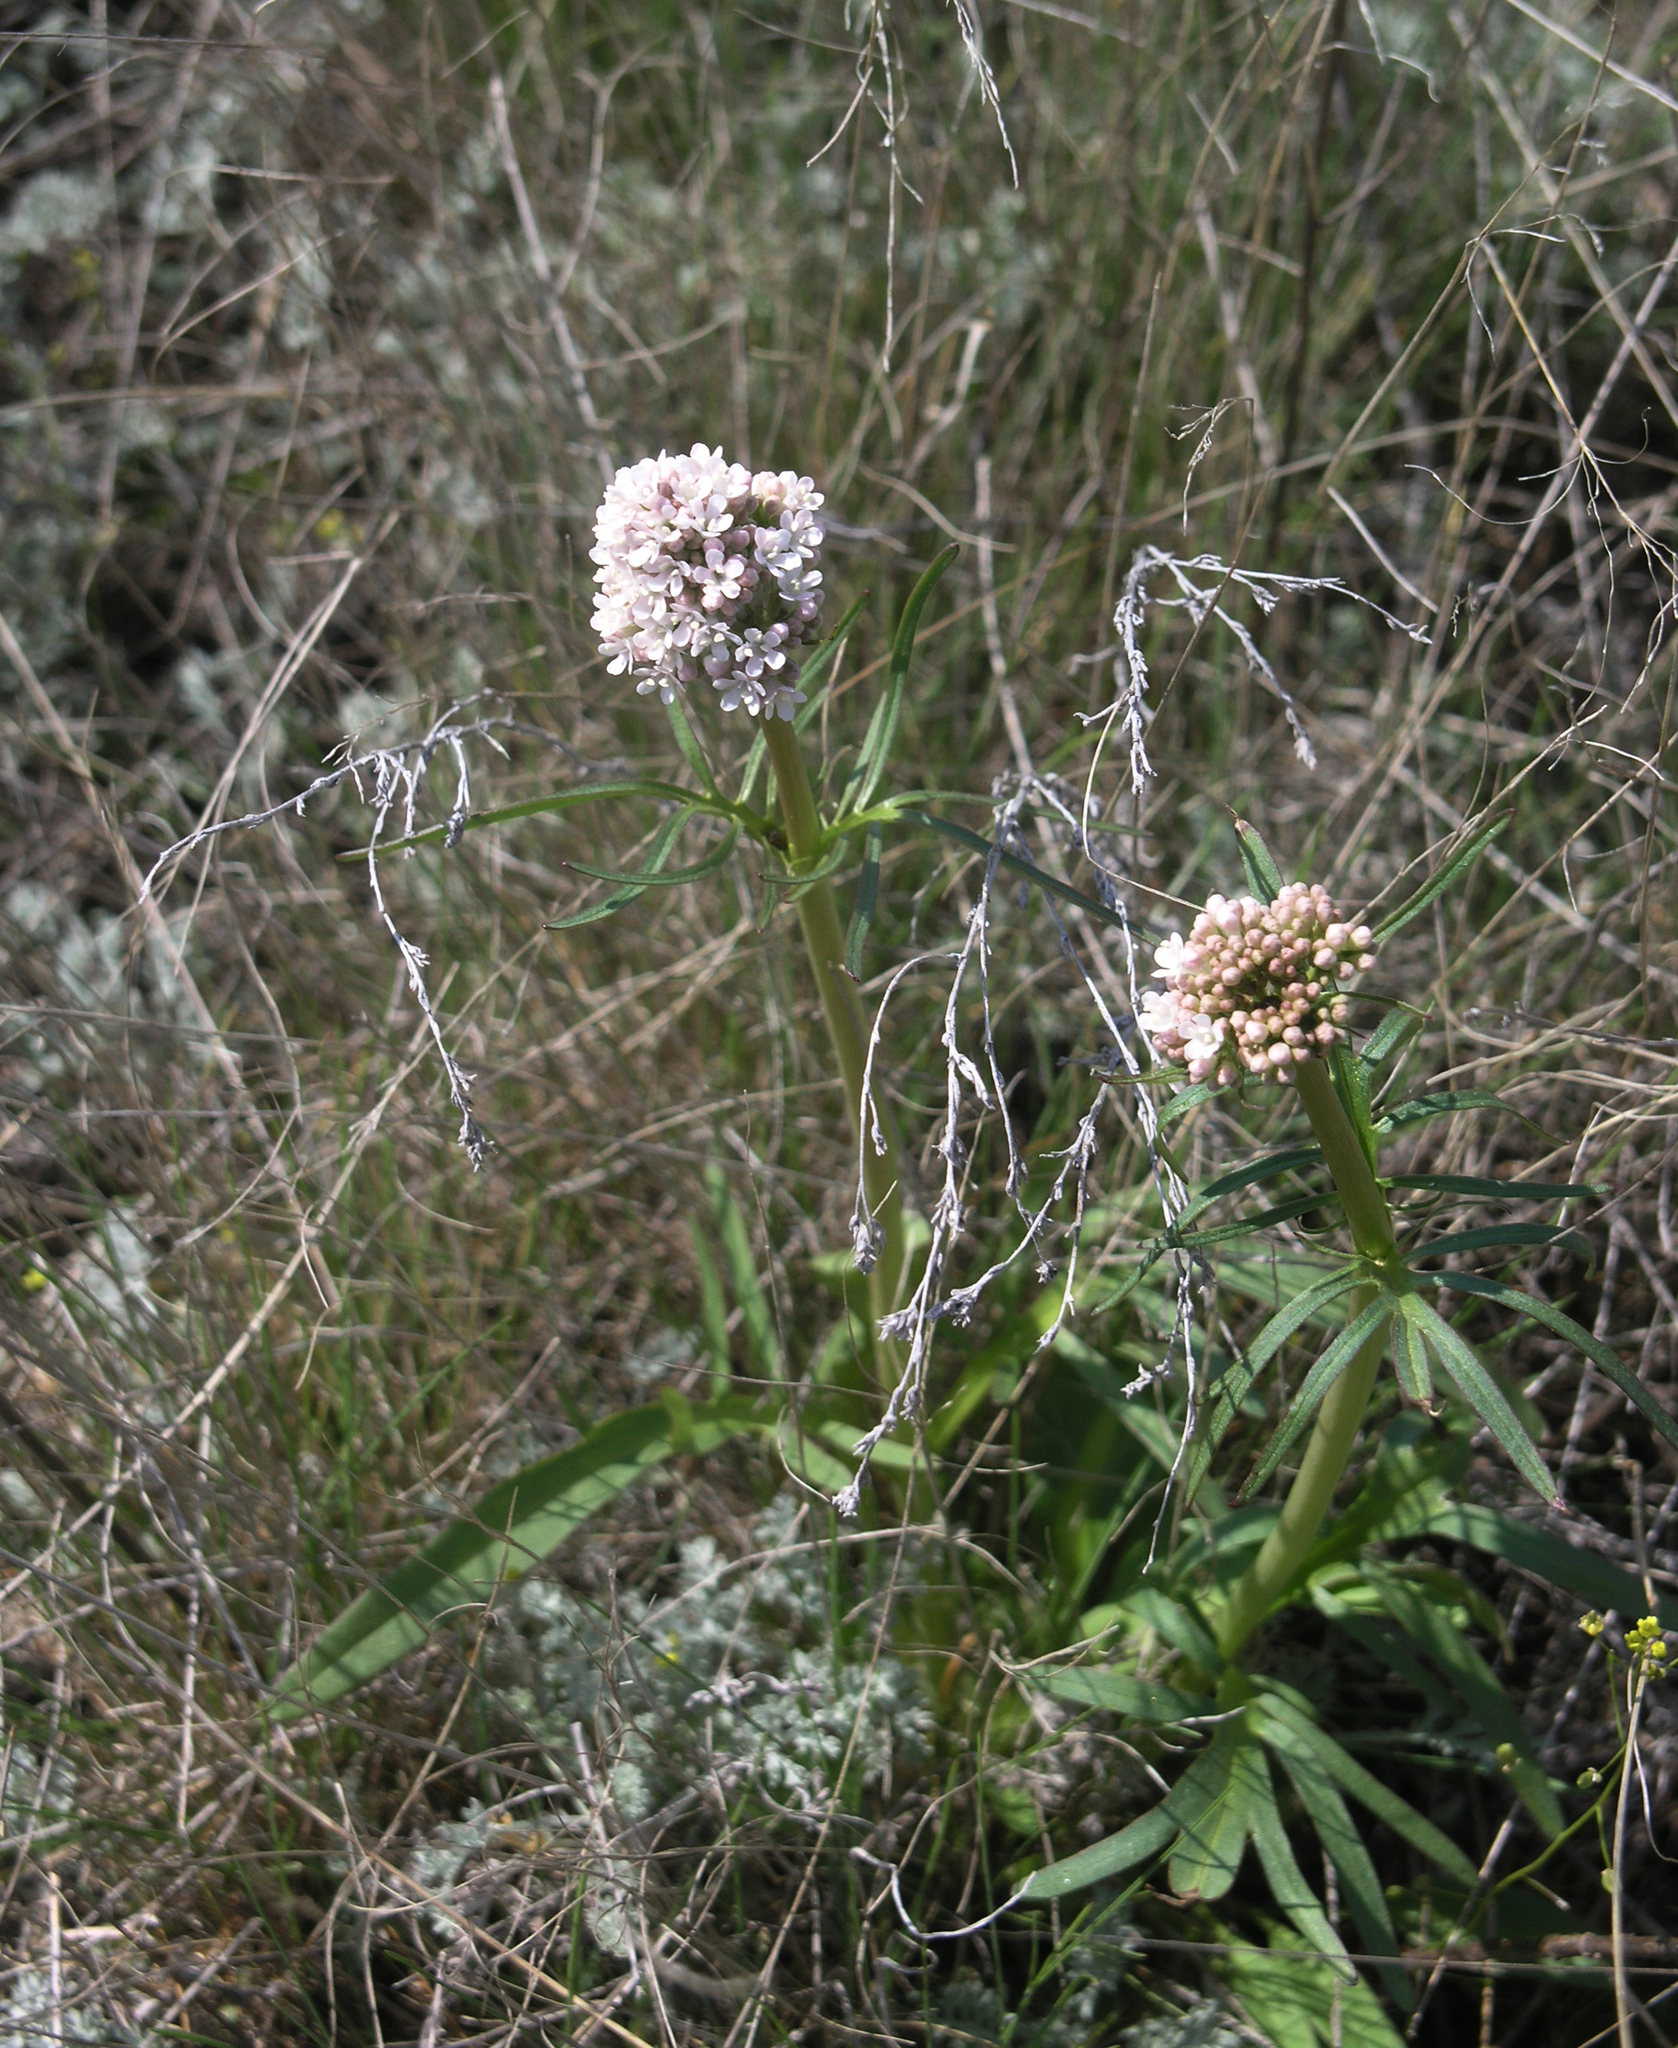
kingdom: Plantae
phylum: Tracheophyta
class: Magnoliopsida
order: Dipsacales
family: Caprifoliaceae
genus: Valeriana
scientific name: Valeriana tuberosa
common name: Tuberous valerian
